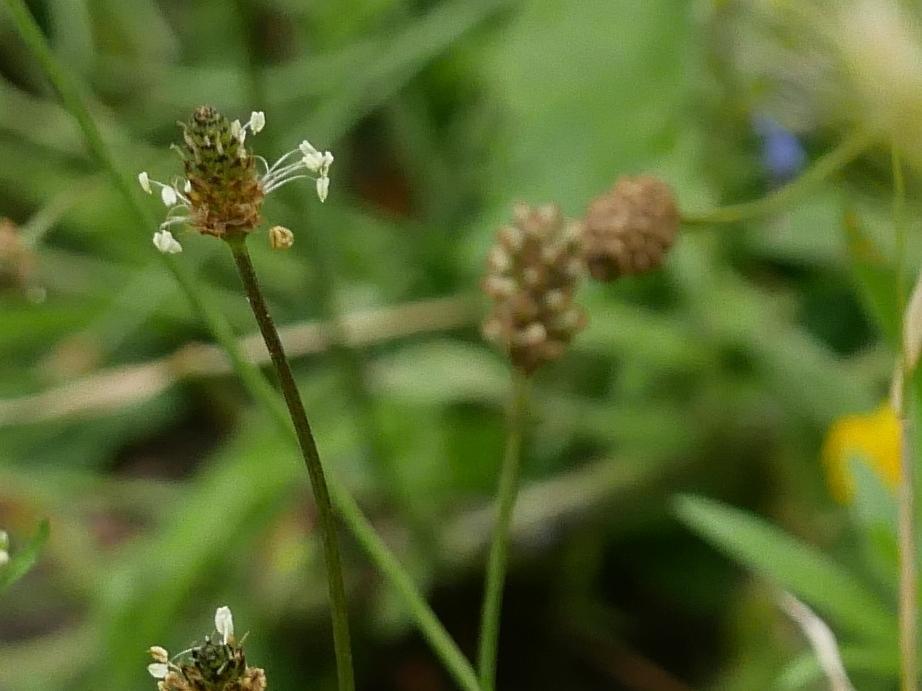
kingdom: Plantae
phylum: Tracheophyta
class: Magnoliopsida
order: Lamiales
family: Plantaginaceae
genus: Plantago
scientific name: Plantago lanceolata
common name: Ribwort plantain
